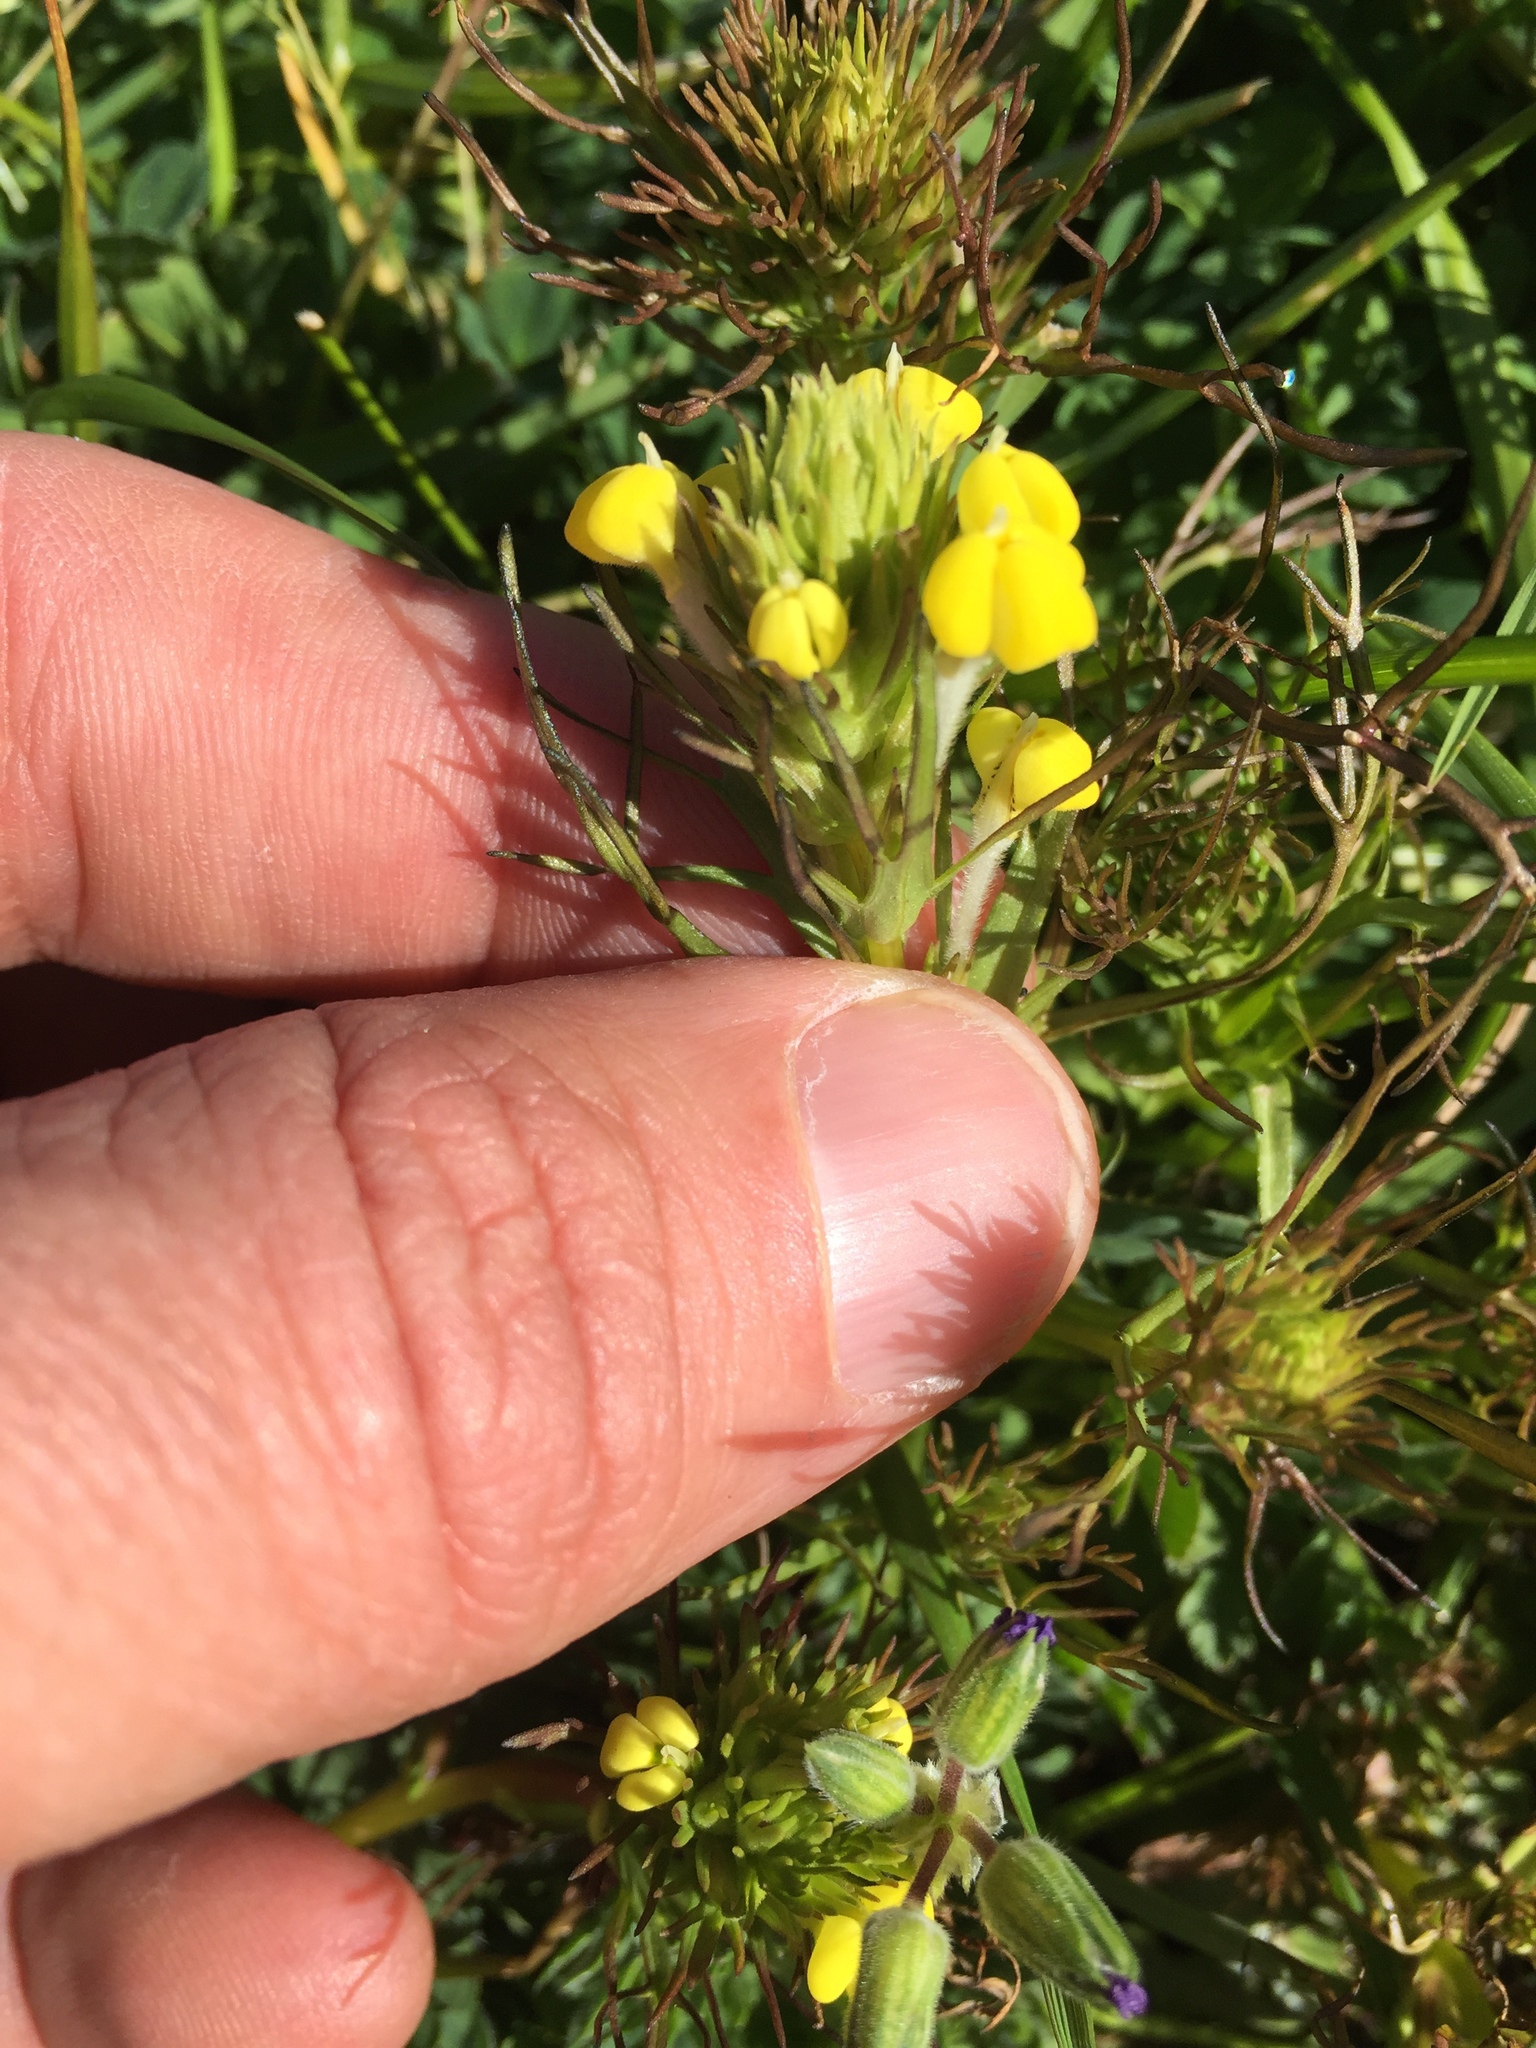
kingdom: Plantae
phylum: Tracheophyta
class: Magnoliopsida
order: Lamiales
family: Orobanchaceae
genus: Triphysaria
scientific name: Triphysaria versicolor
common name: Bearded false owl-clover
